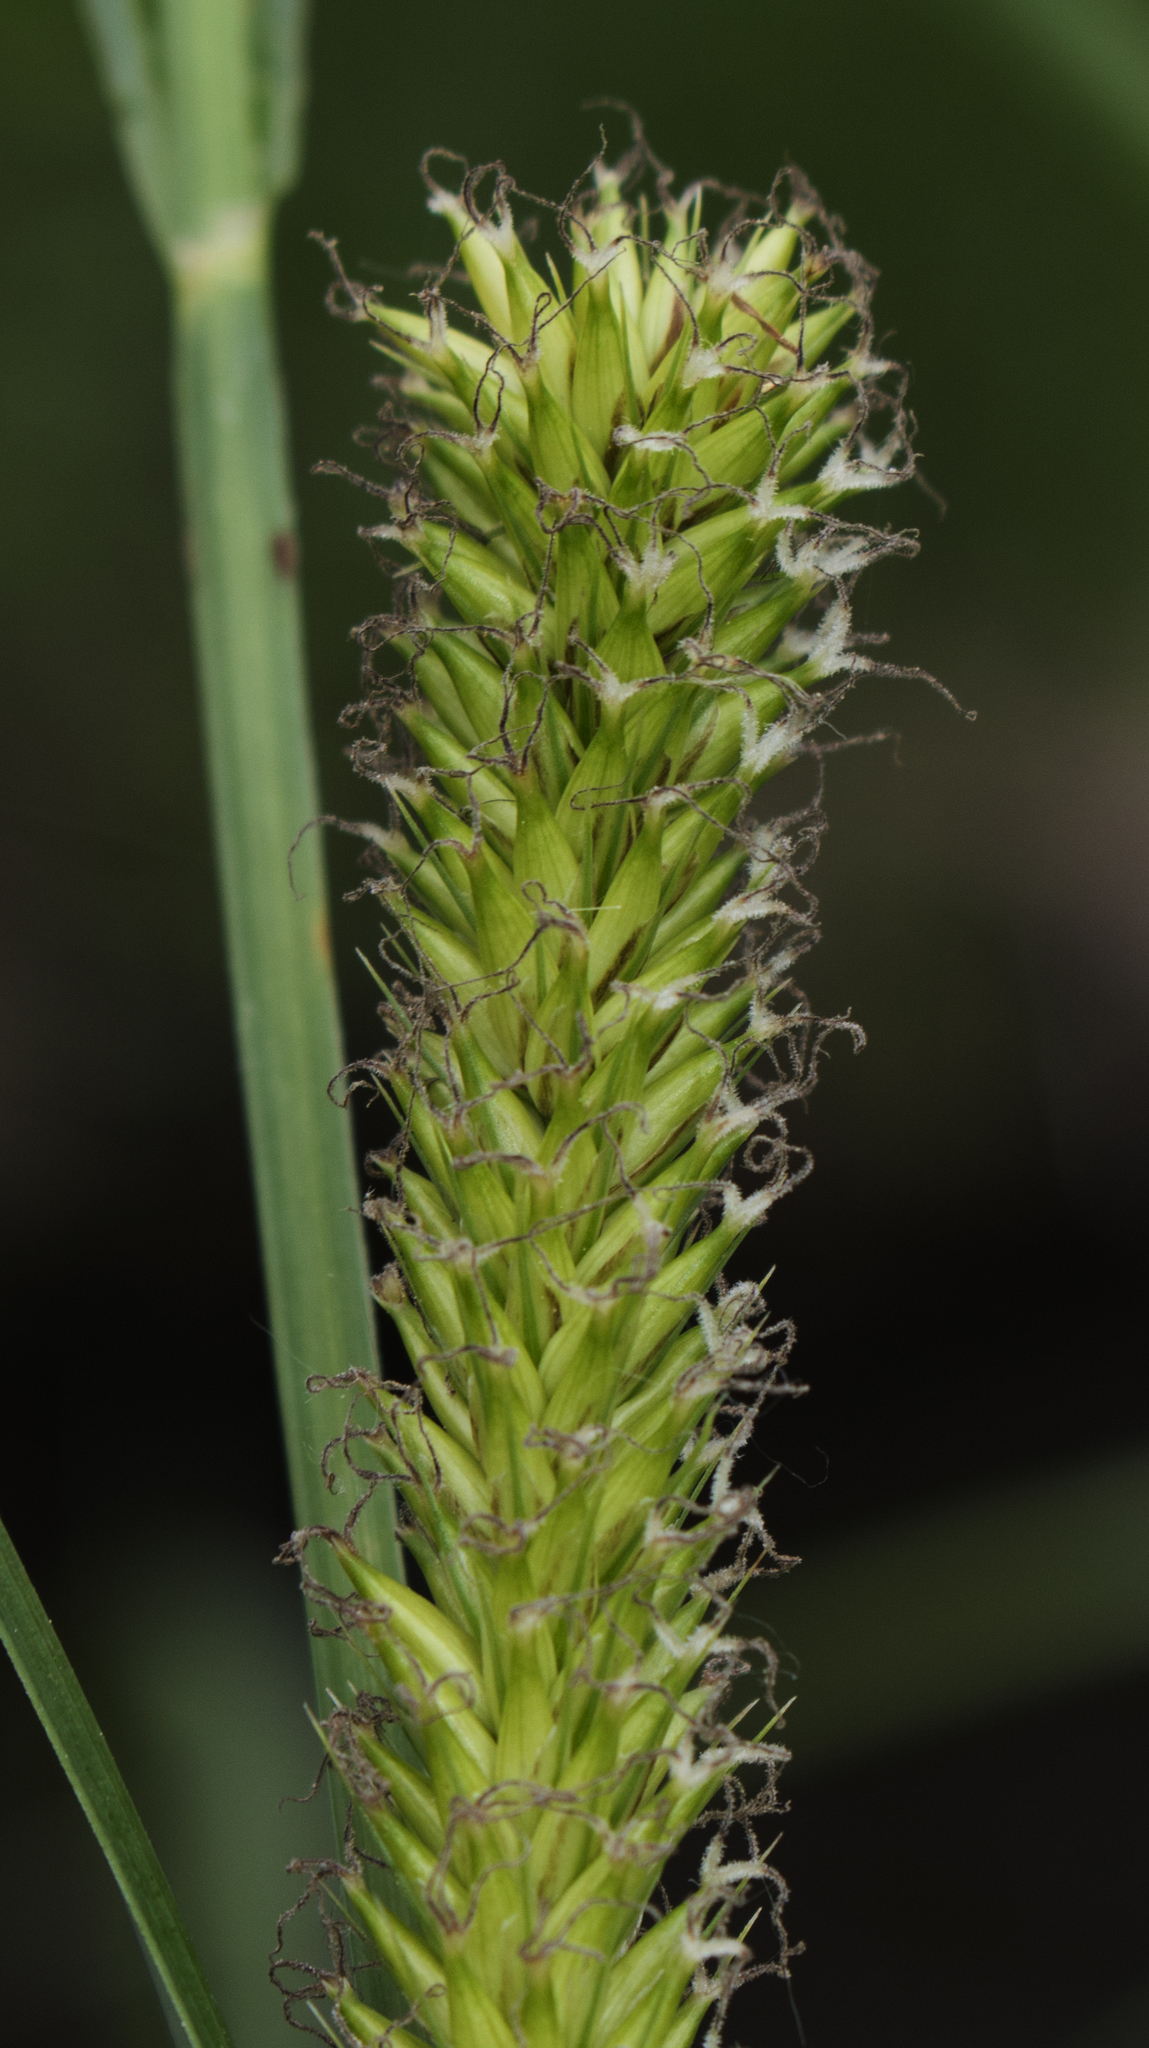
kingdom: Plantae
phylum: Tracheophyta
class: Liliopsida
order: Poales
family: Cyperaceae
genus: Carex
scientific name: Carex lacustris
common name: Common lake sedge
